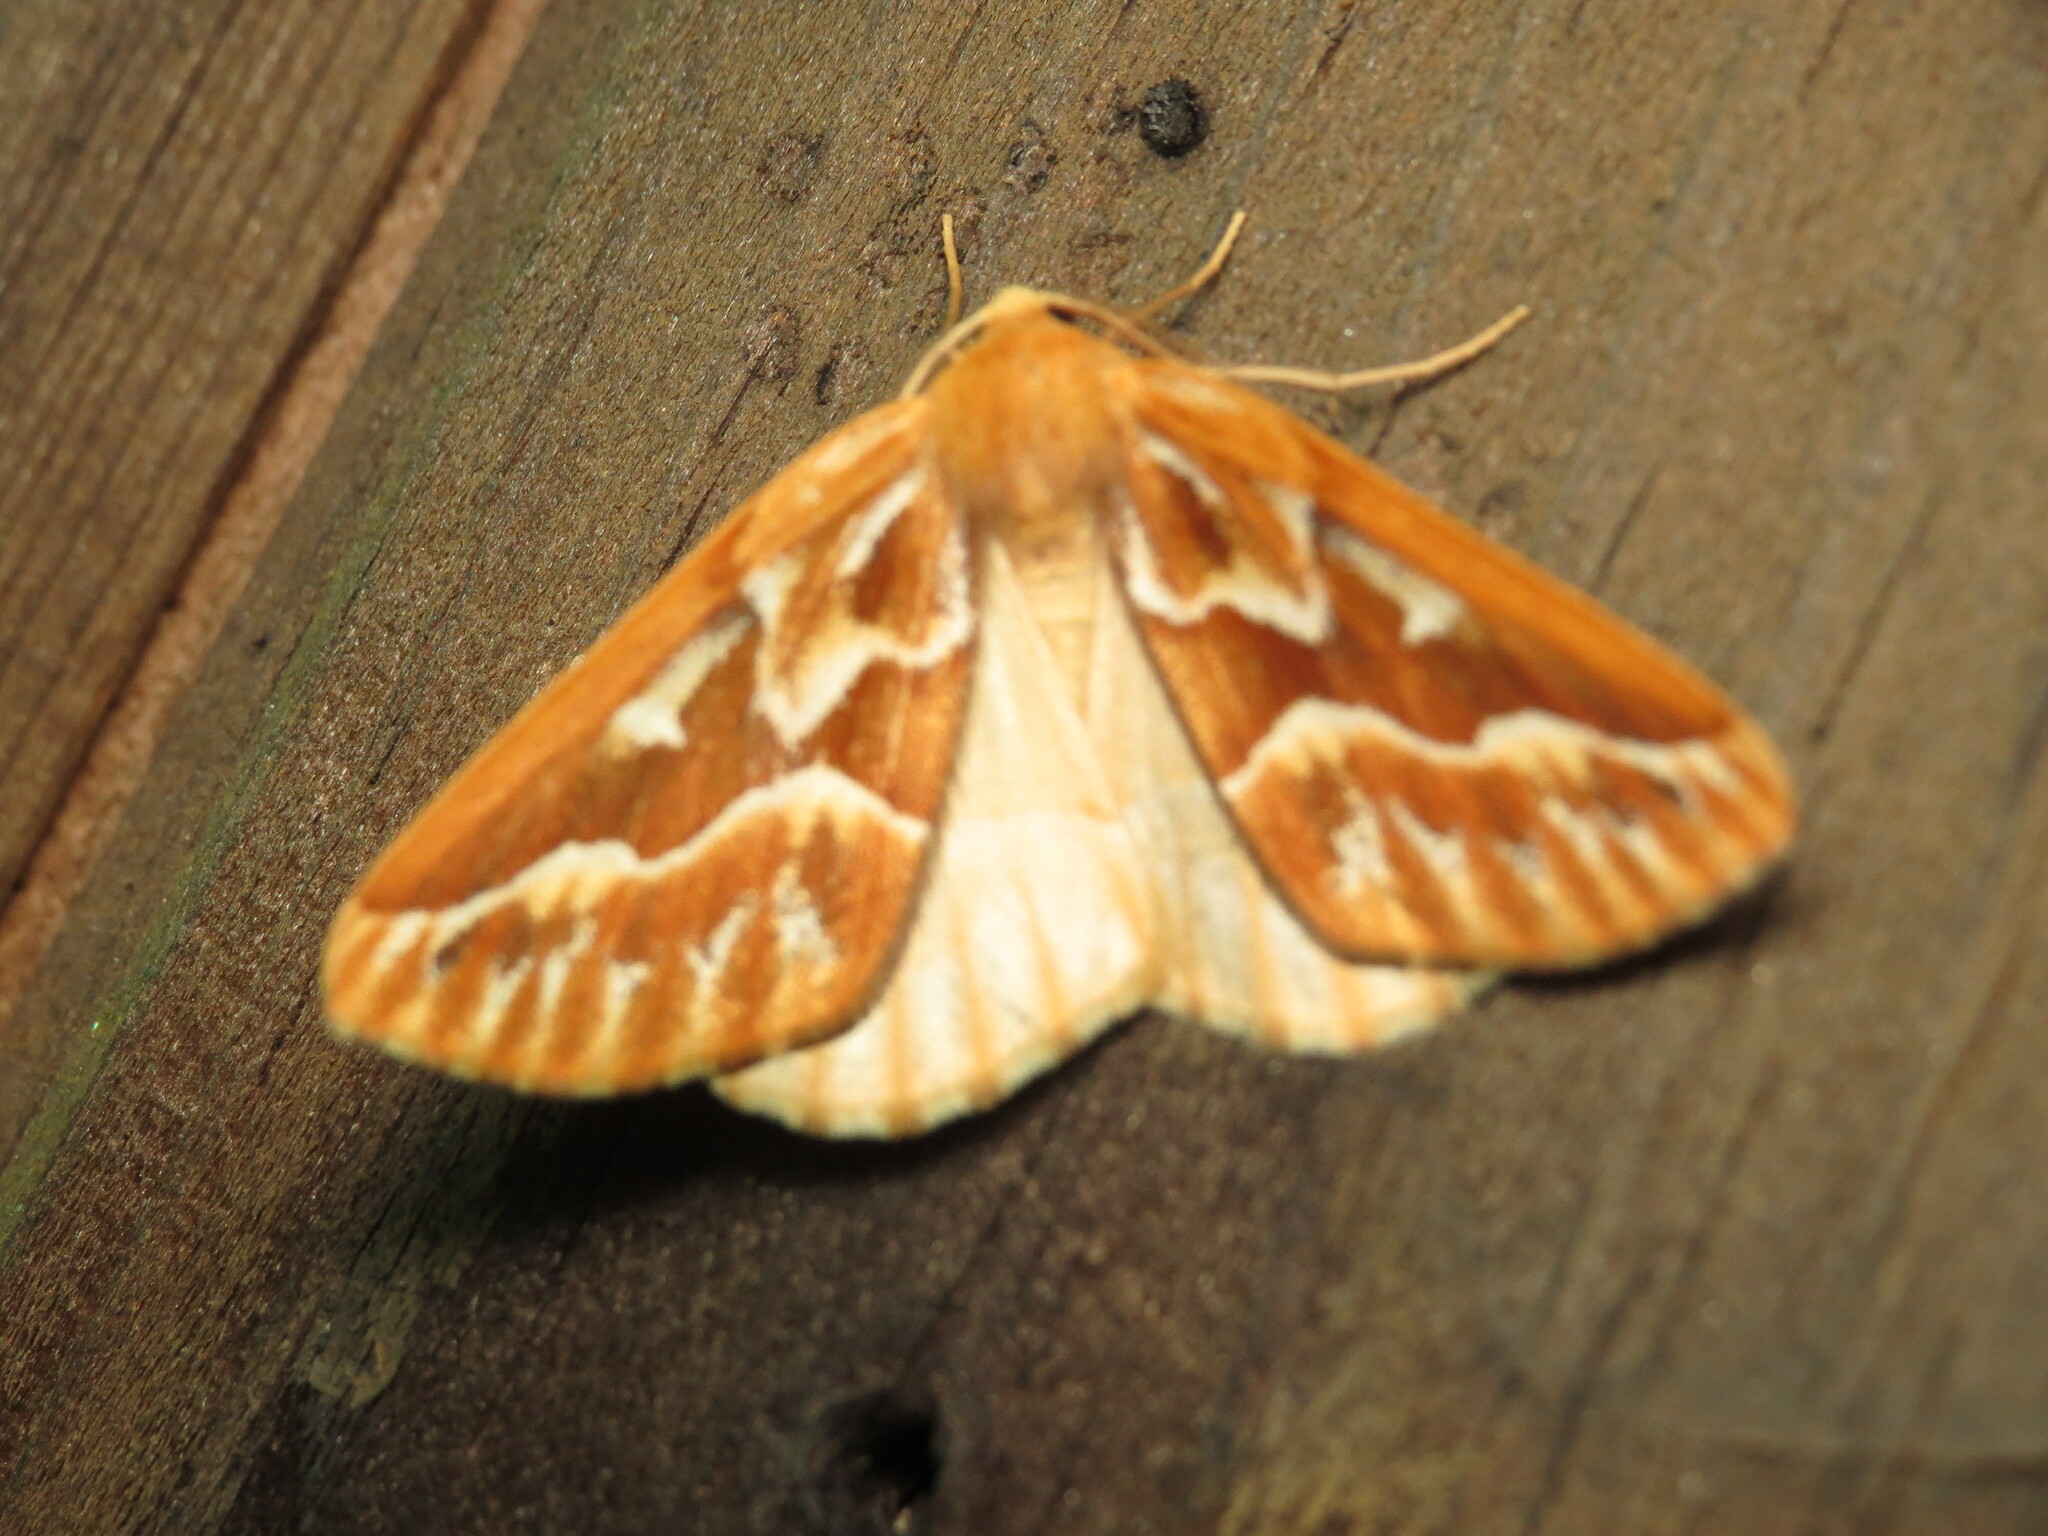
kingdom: Animalia
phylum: Arthropoda
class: Insecta
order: Lepidoptera
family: Geometridae
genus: Caripeta
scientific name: Caripeta piniata
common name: Northern pine looper moth
